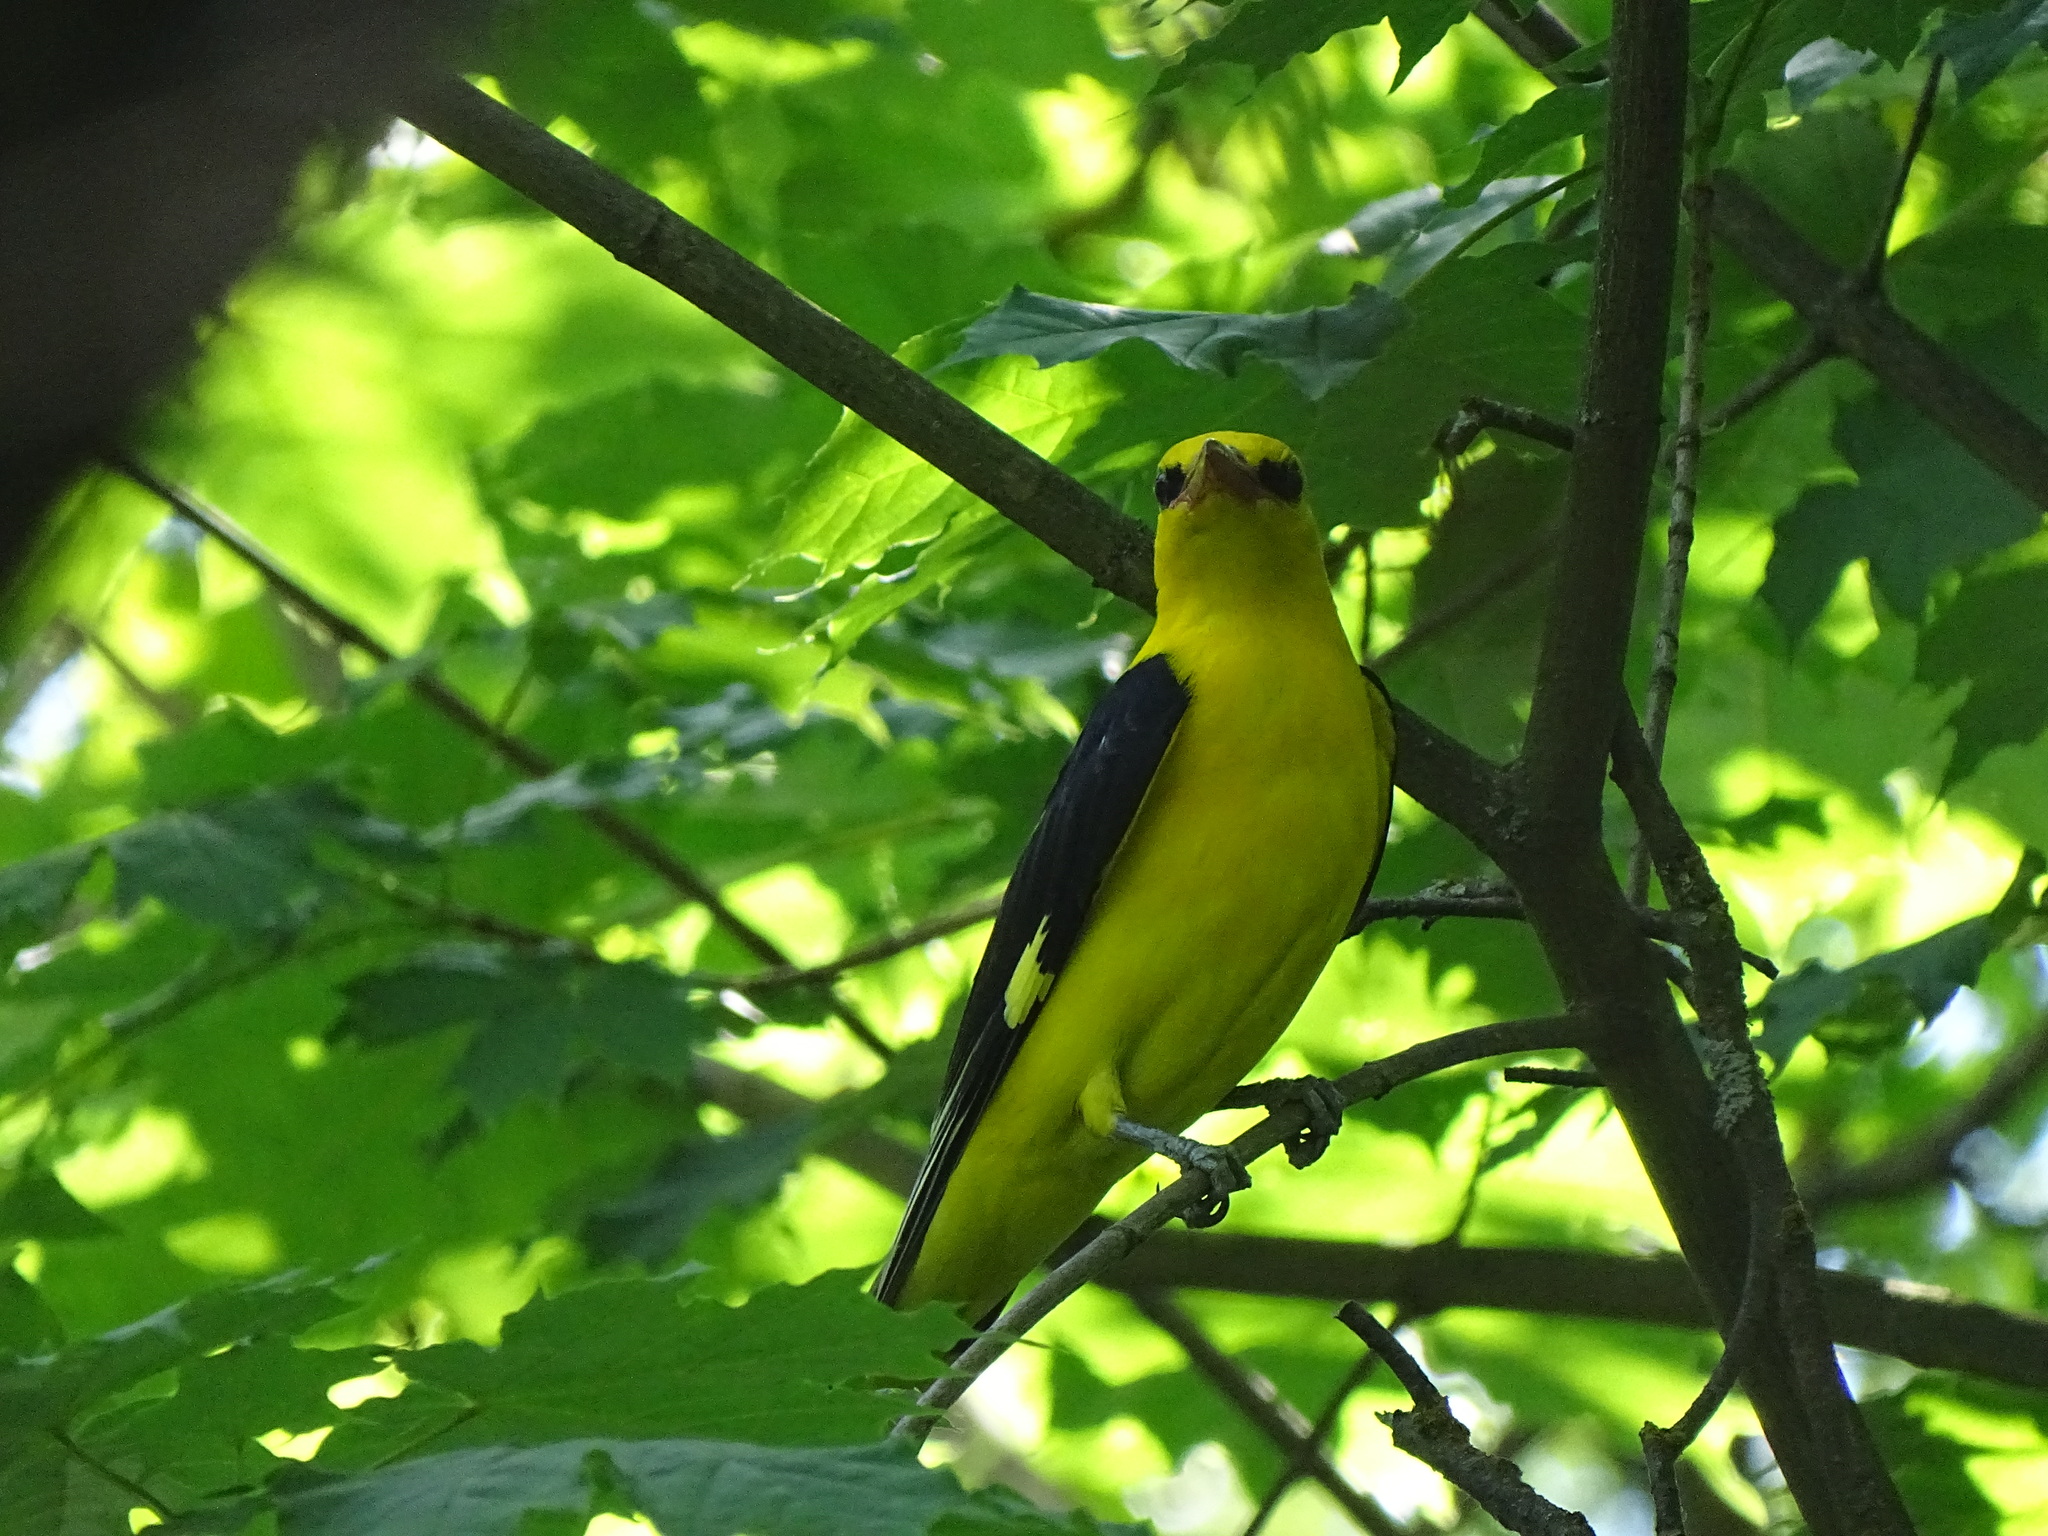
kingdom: Animalia
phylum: Chordata
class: Aves
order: Passeriformes
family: Oriolidae
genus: Oriolus
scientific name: Oriolus oriolus
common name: Eurasian golden oriole
